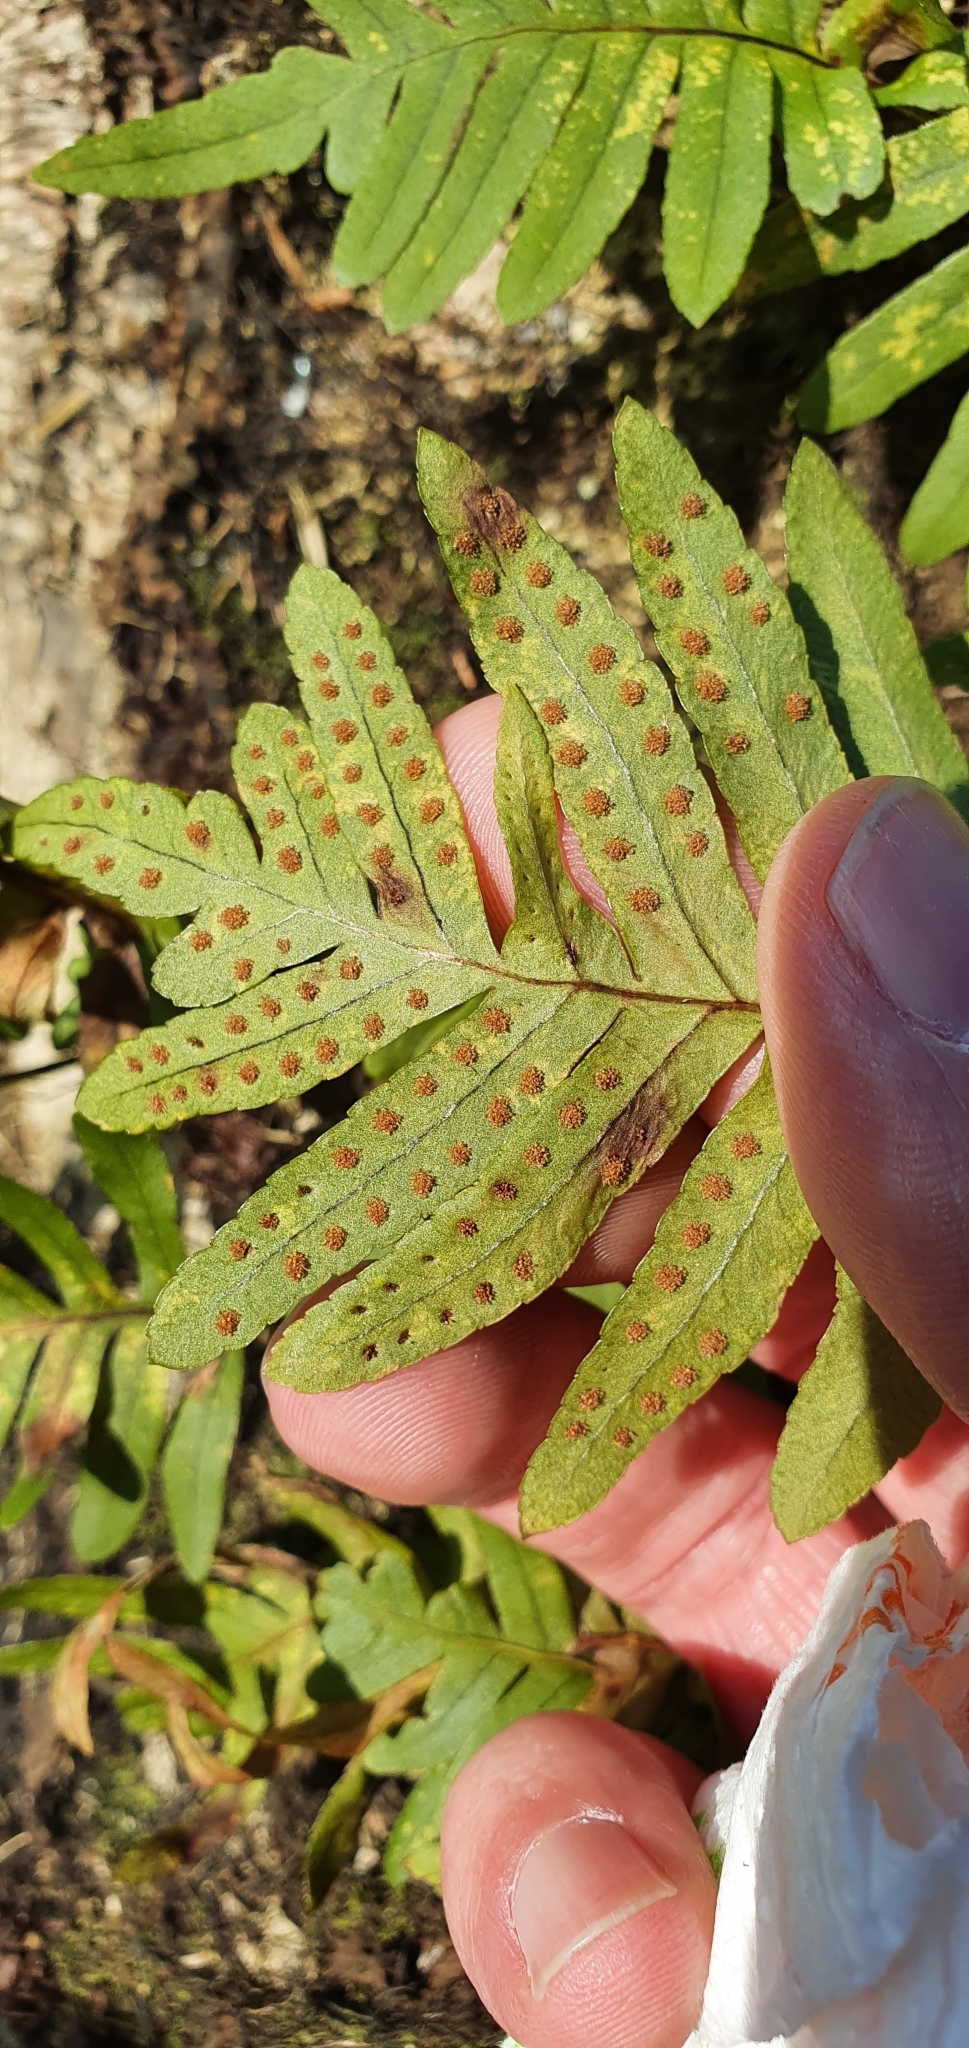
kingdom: Plantae
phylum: Tracheophyta
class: Polypodiopsida
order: Polypodiales
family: Polypodiaceae
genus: Polypodium
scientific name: Polypodium vulgare
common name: Common polypody
